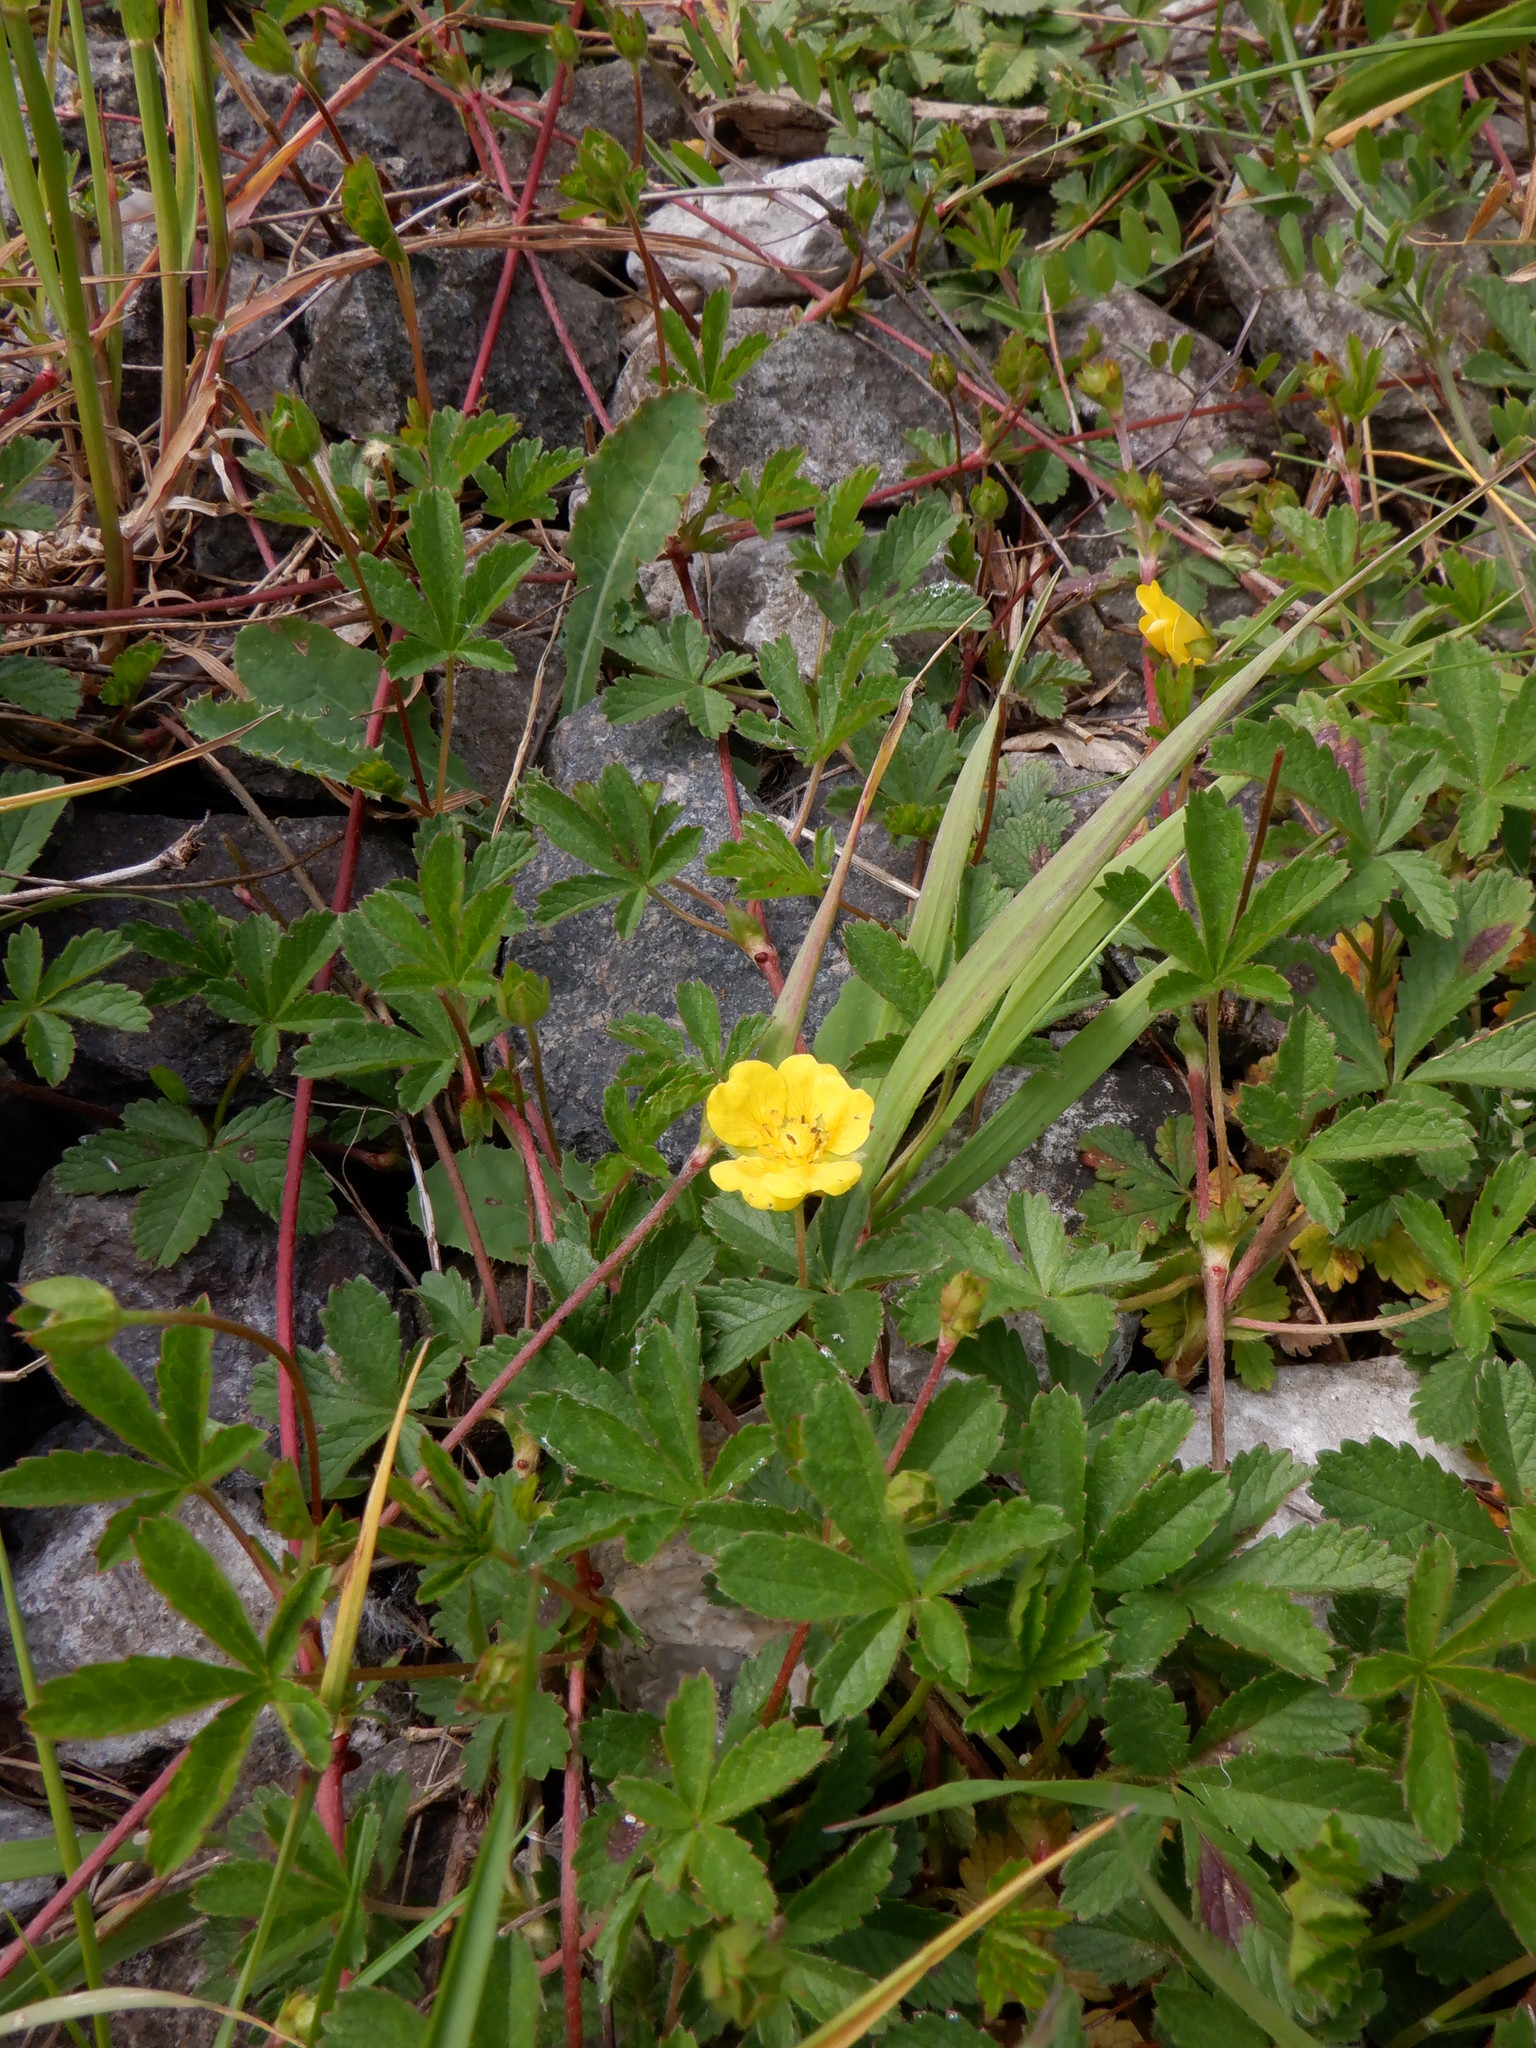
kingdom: Plantae
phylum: Tracheophyta
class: Magnoliopsida
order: Rosales
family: Rosaceae
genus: Potentilla
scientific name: Potentilla reptans
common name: Creeping cinquefoil
